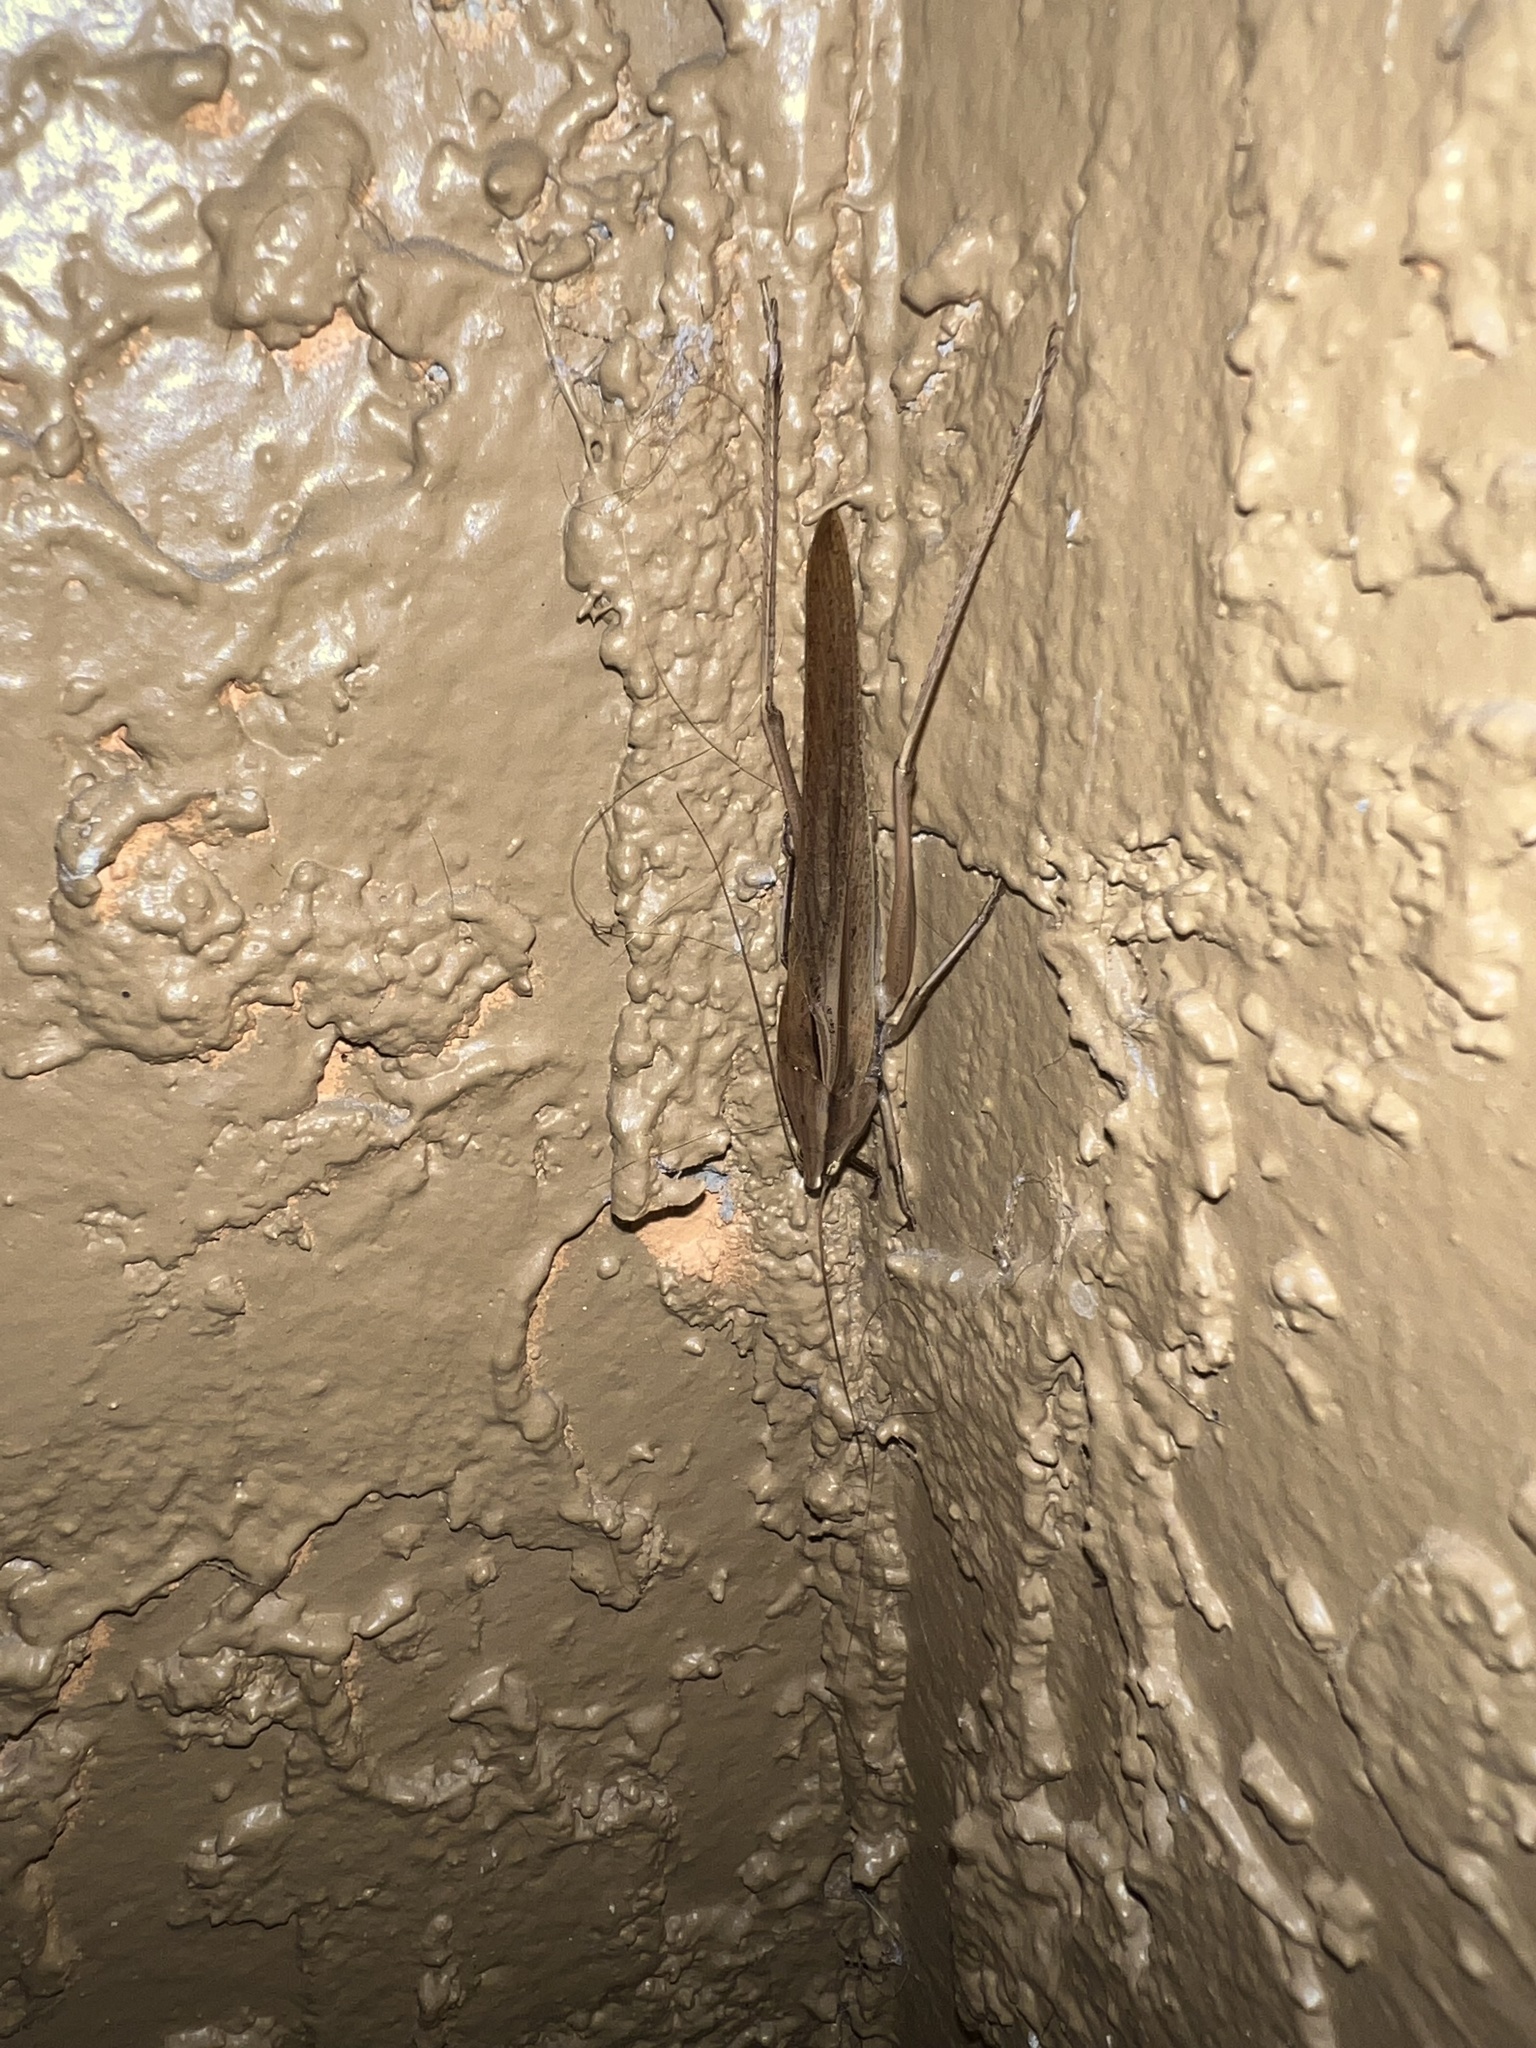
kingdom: Animalia
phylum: Arthropoda
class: Insecta
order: Orthoptera
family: Tettigoniidae
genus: Neoconocephalus
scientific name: Neoconocephalus triops
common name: Broad-tipped conehead
